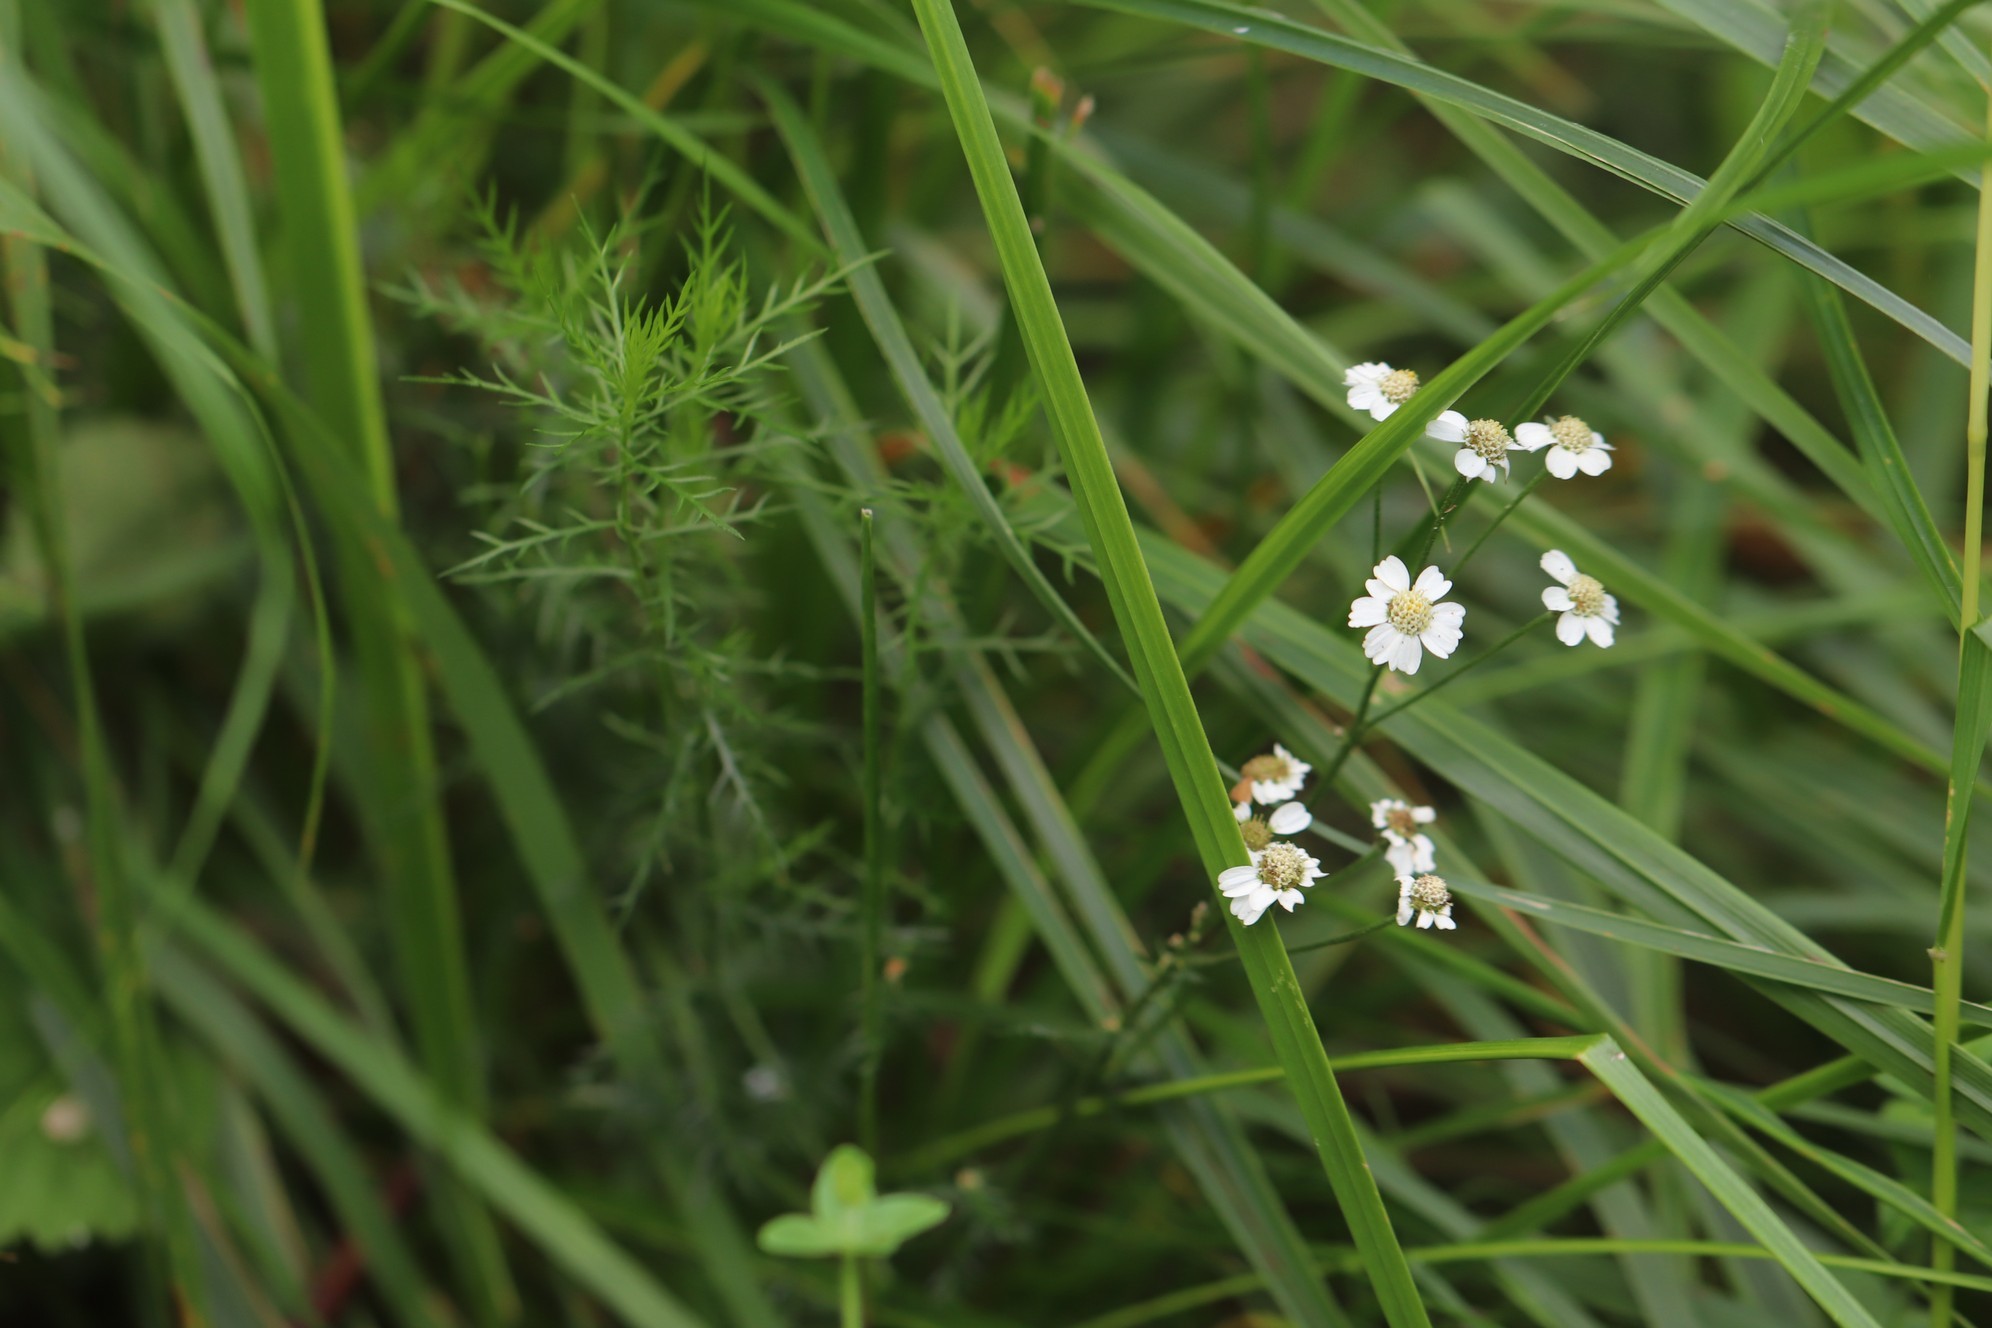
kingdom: Plantae
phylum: Tracheophyta
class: Magnoliopsida
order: Asterales
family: Asteraceae
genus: Achillea
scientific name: Achillea impatiens
